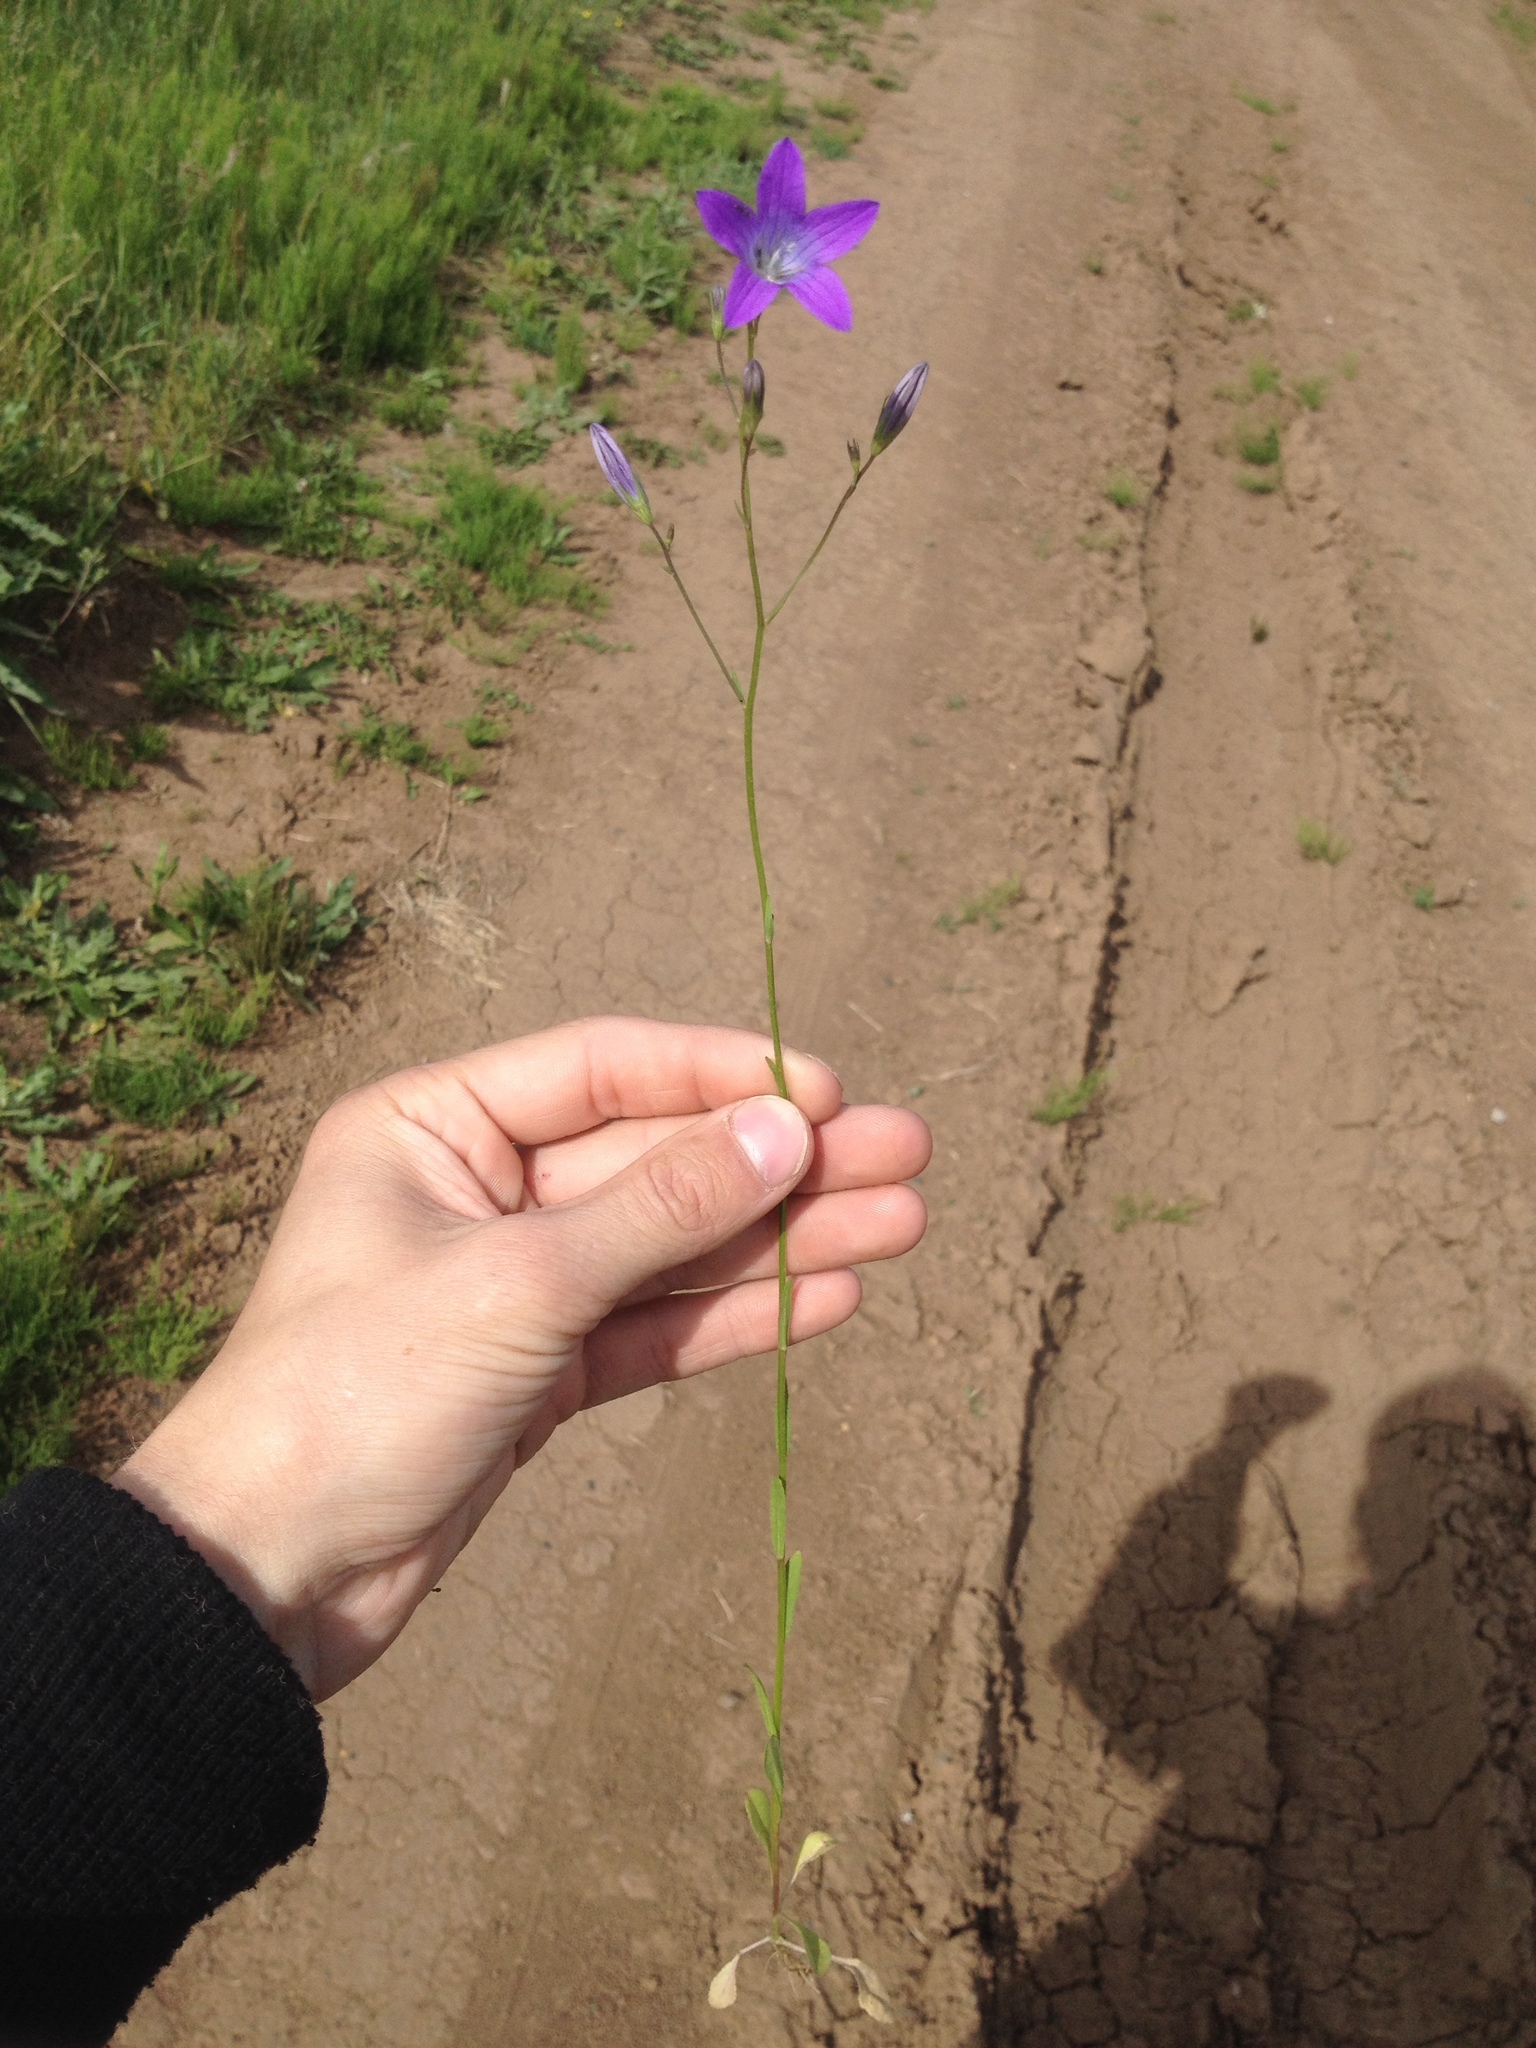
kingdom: Plantae
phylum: Tracheophyta
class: Magnoliopsida
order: Asterales
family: Campanulaceae
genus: Campanula
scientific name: Campanula patula
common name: Spreading bellflower
